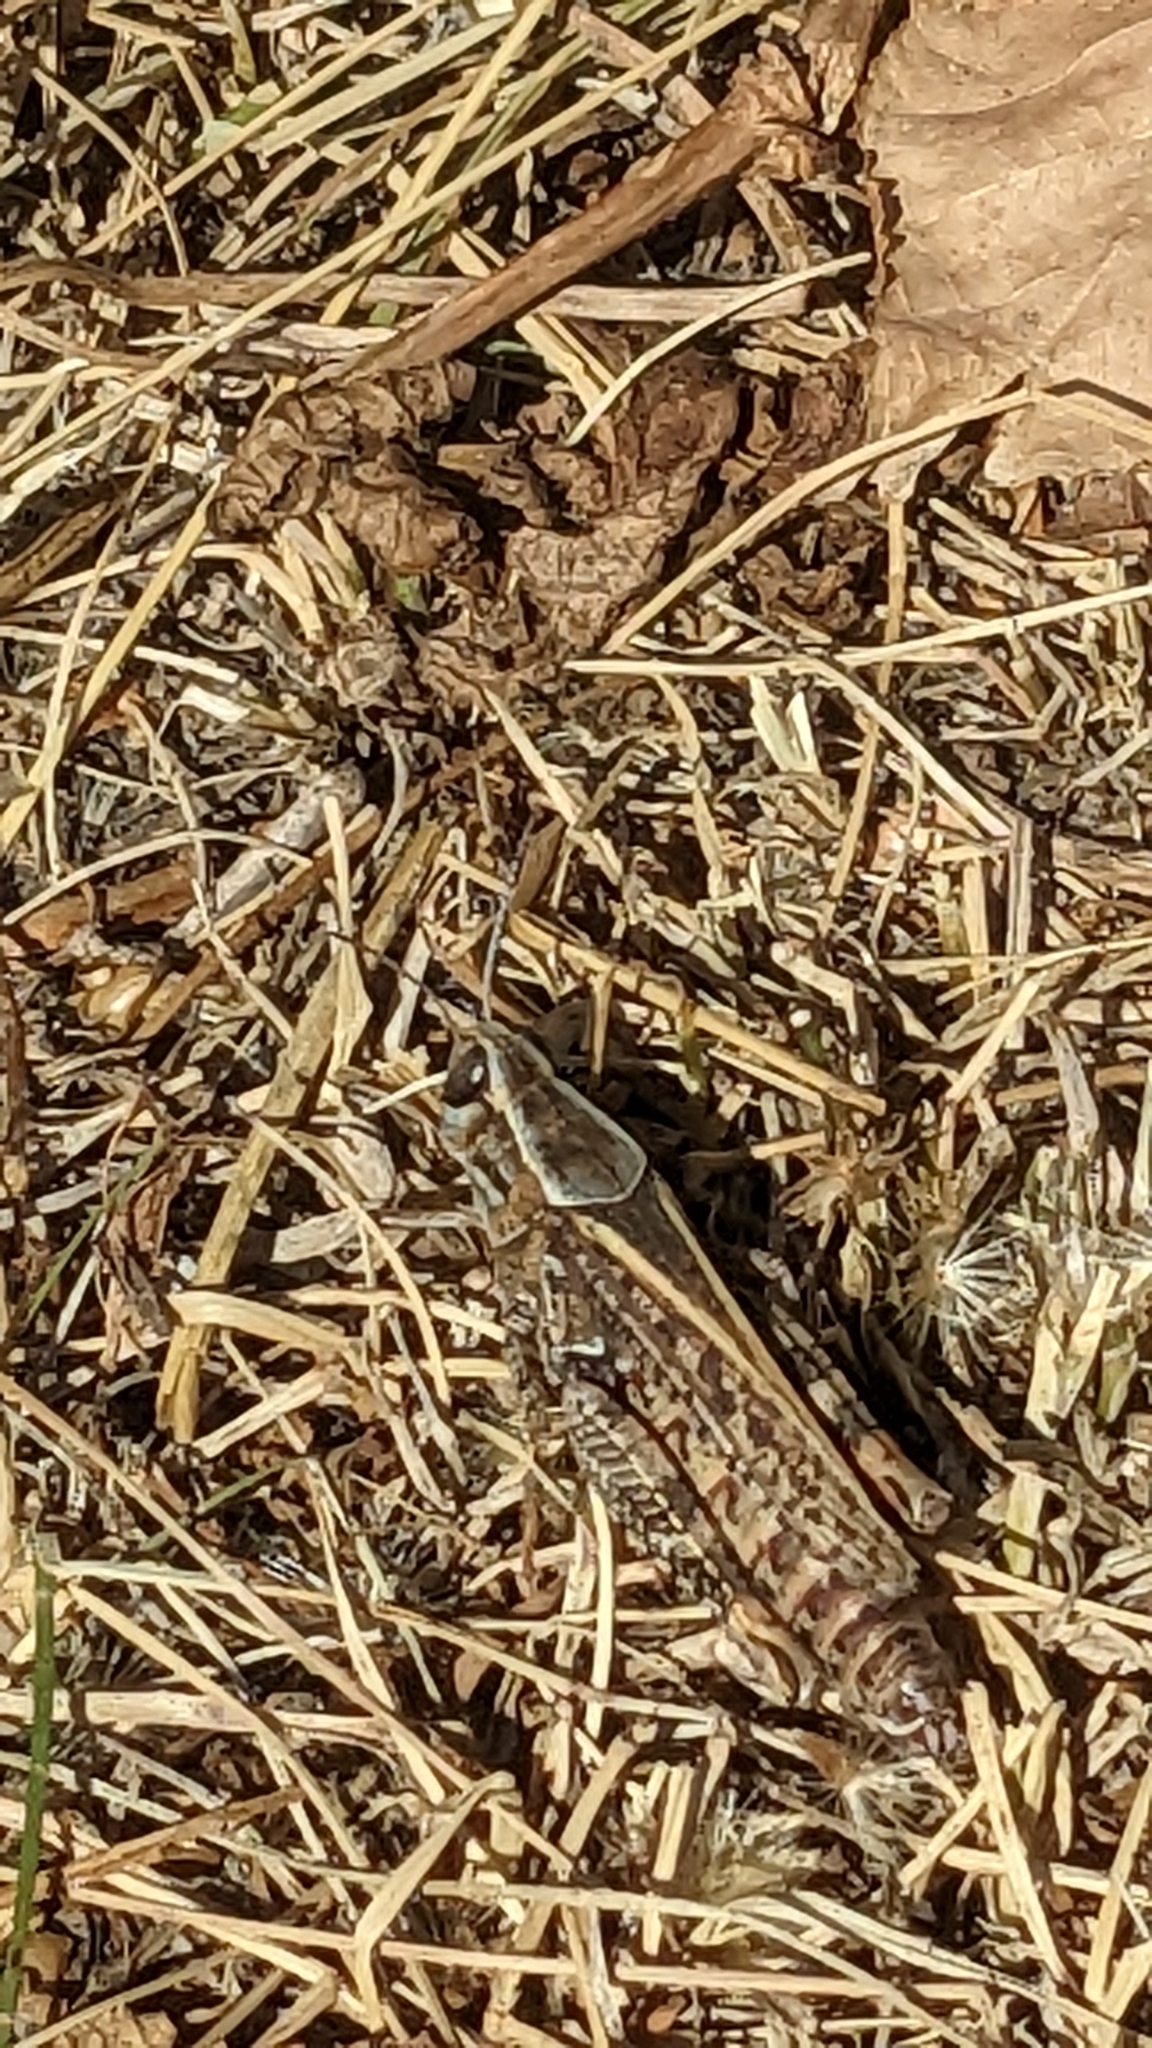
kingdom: Animalia
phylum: Arthropoda
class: Insecta
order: Orthoptera
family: Acrididae
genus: Calliptamus
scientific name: Calliptamus italicus
